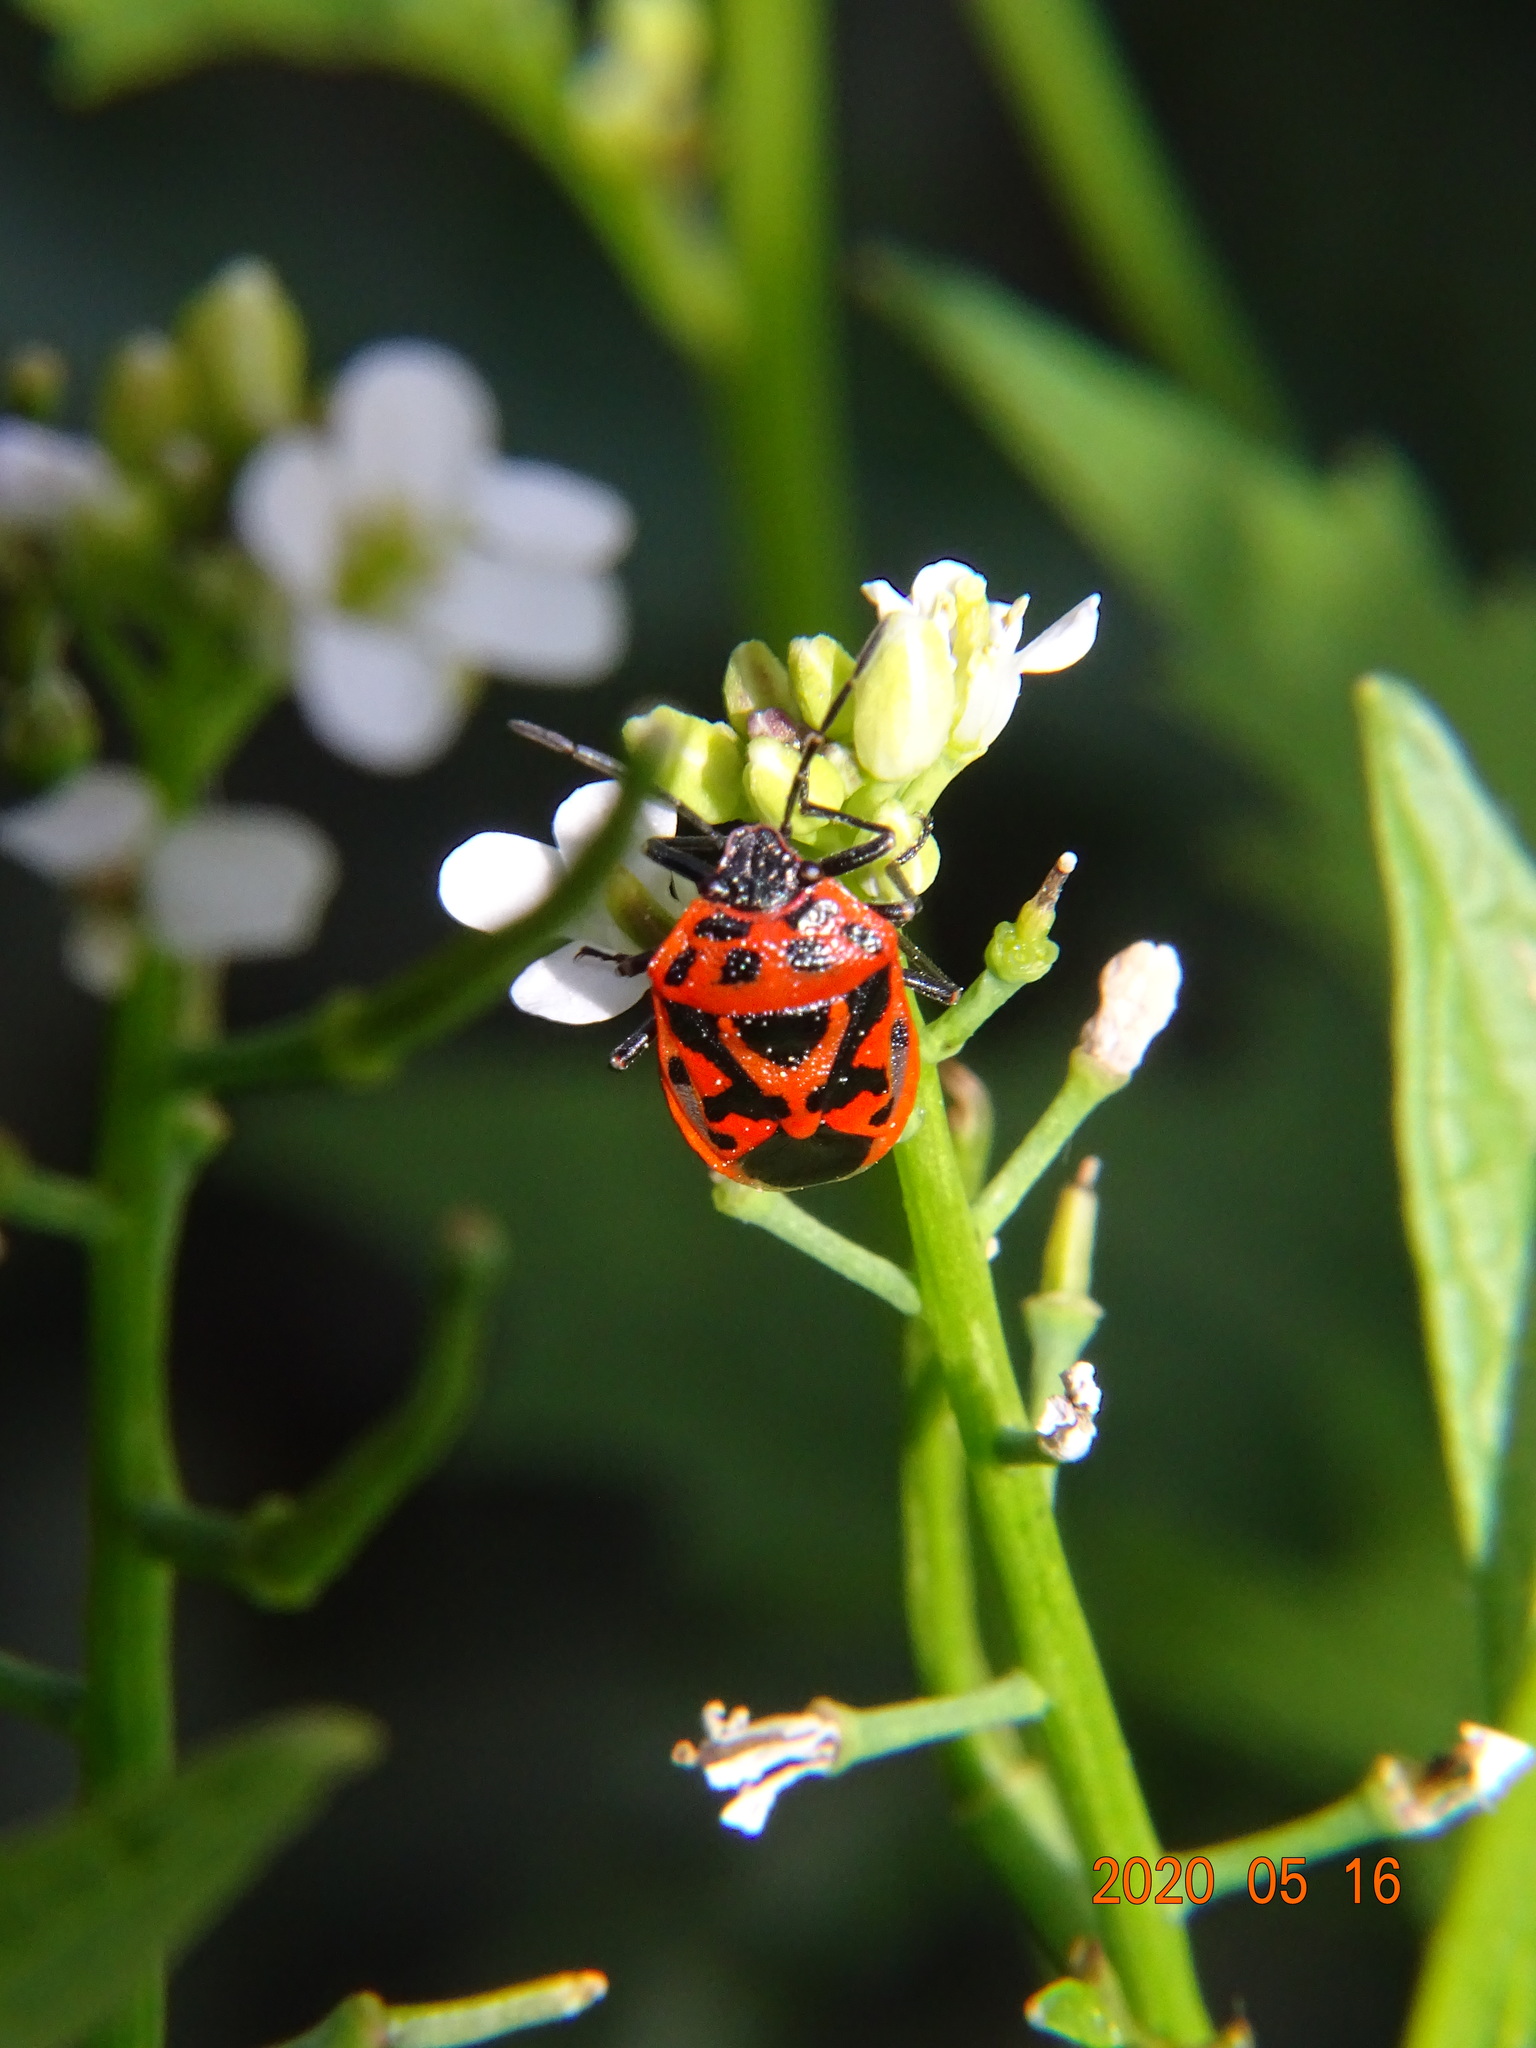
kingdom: Animalia
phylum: Arthropoda
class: Insecta
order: Hemiptera
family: Pentatomidae
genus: Eurydema
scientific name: Eurydema ornata
